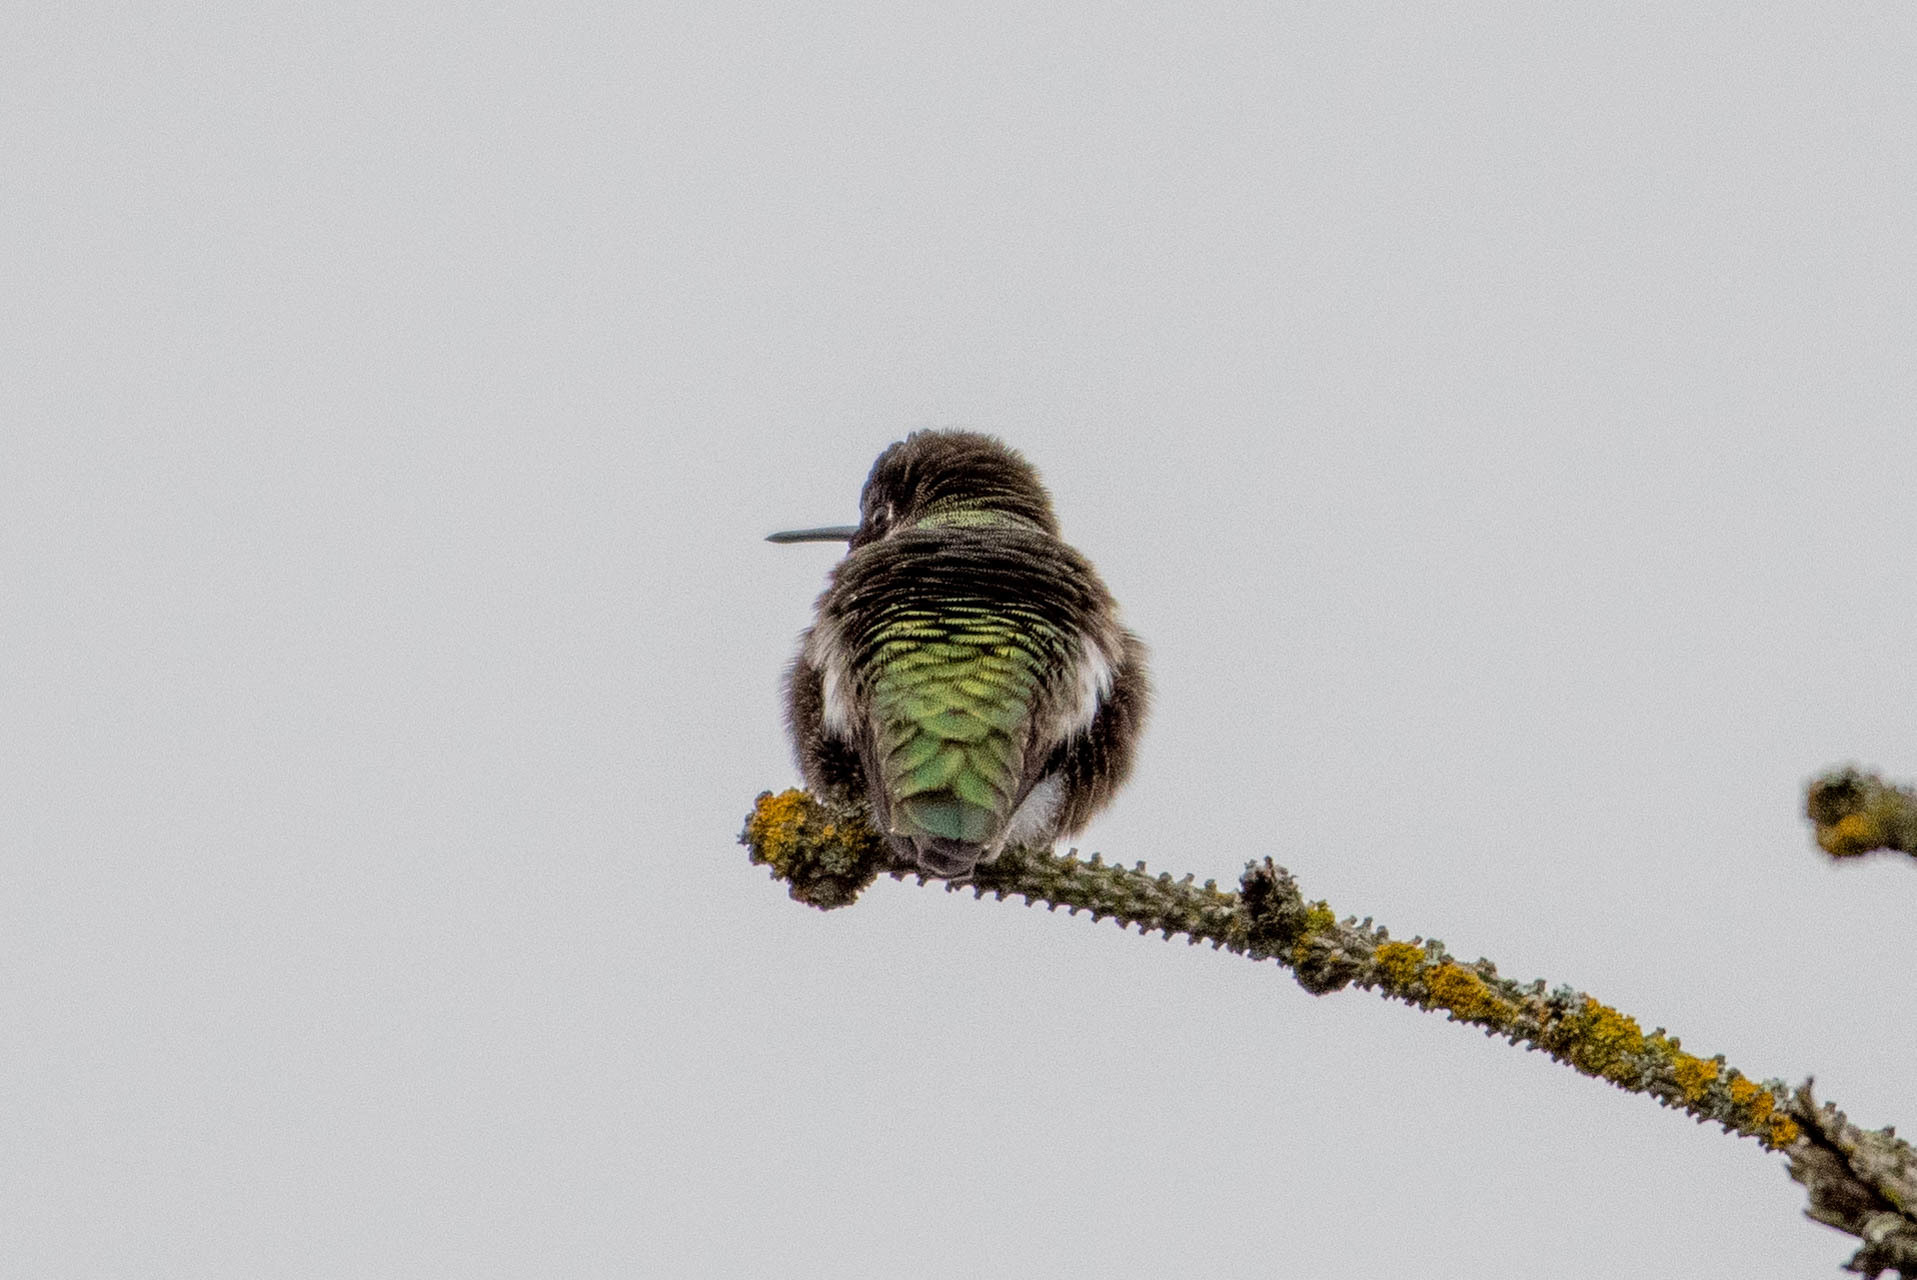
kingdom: Animalia
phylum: Chordata
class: Aves
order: Apodiformes
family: Trochilidae
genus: Calypte
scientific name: Calypte anna
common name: Anna's hummingbird
